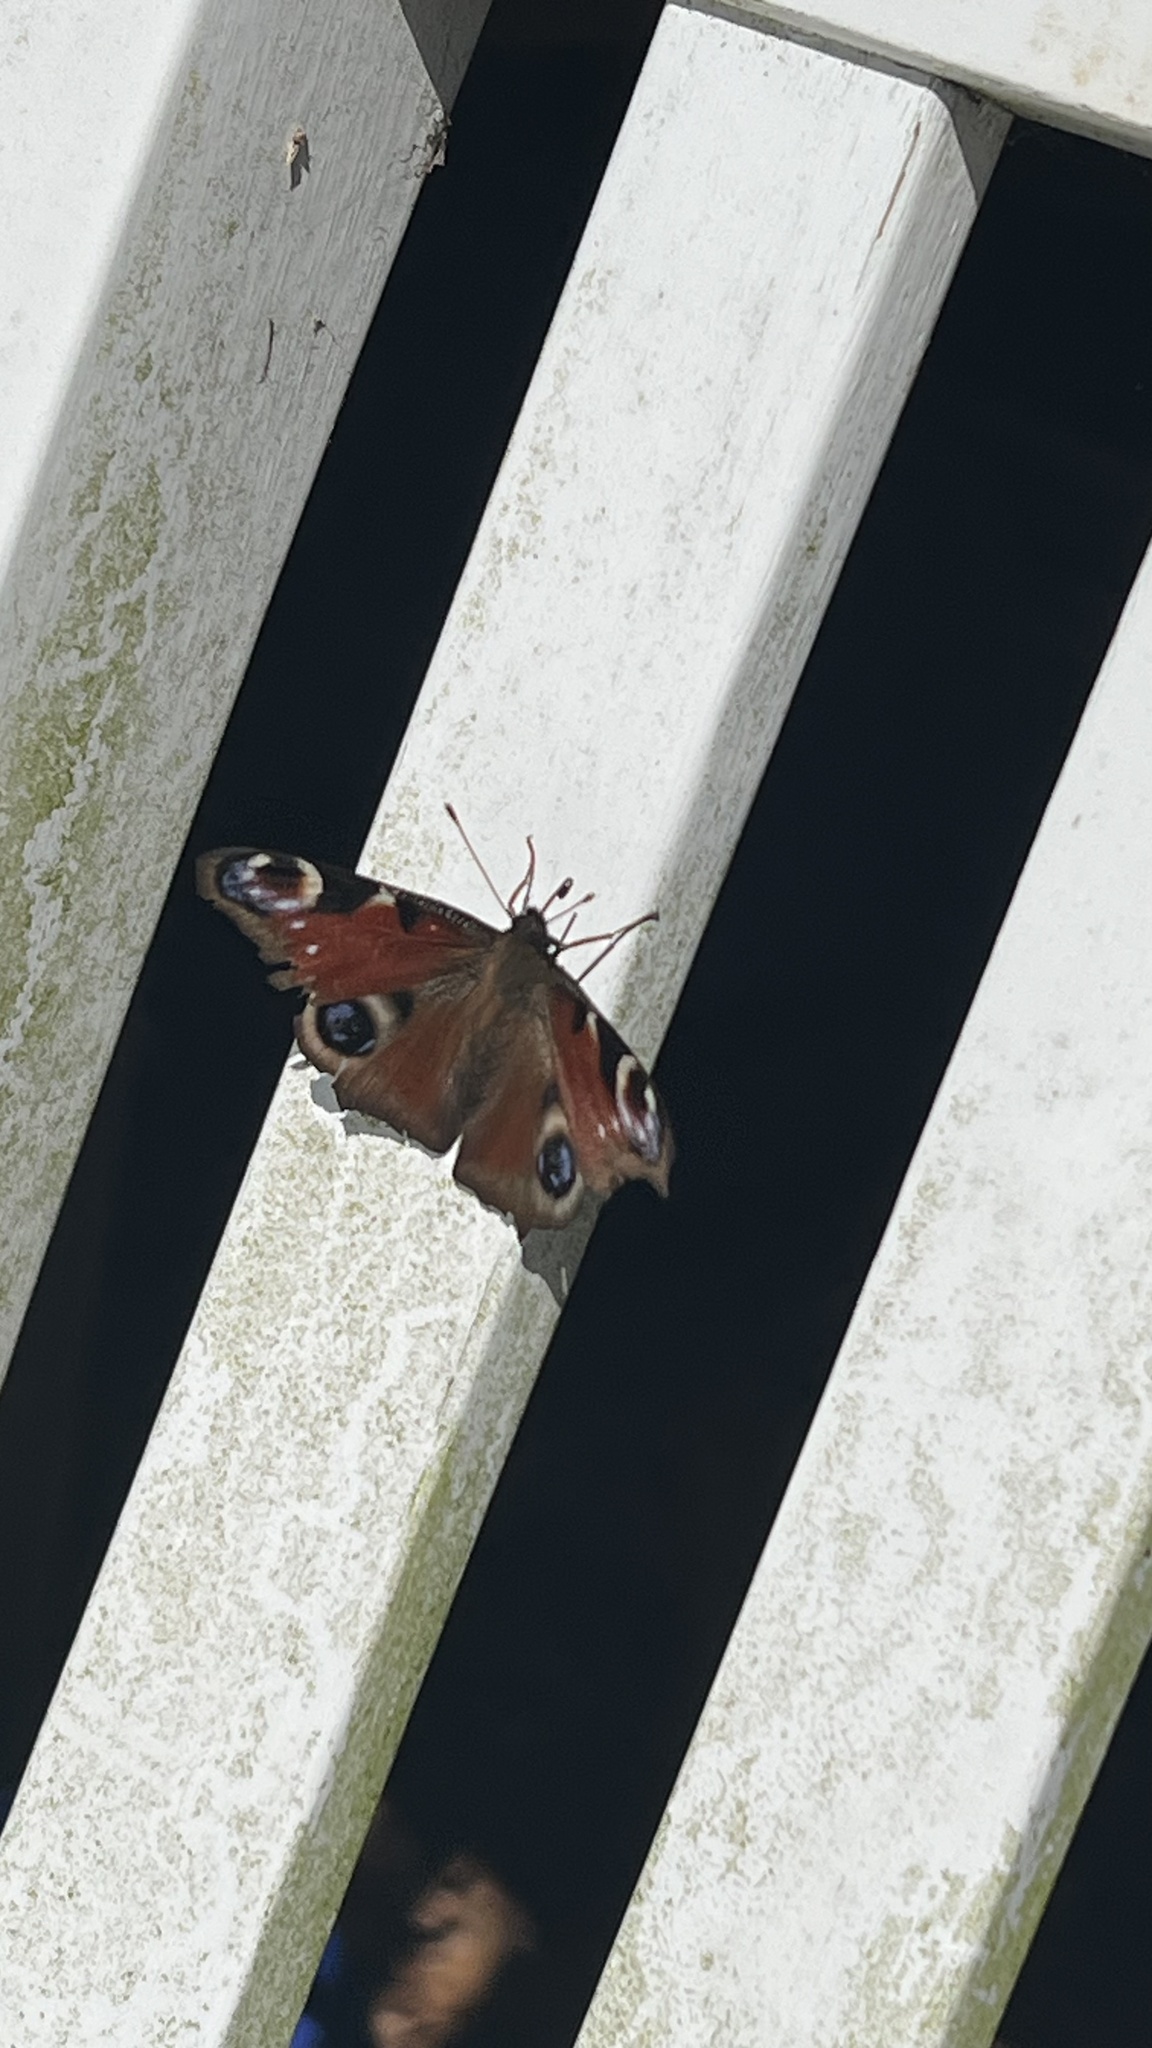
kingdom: Animalia
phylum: Arthropoda
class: Insecta
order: Lepidoptera
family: Nymphalidae
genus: Aglais
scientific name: Aglais io
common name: Peacock
